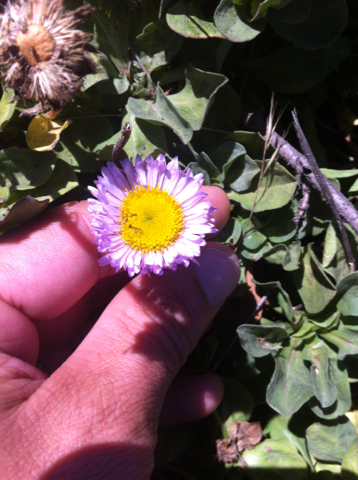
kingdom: Plantae
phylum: Tracheophyta
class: Magnoliopsida
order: Asterales
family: Asteraceae
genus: Erigeron
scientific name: Erigeron glaucus
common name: Seaside daisy
